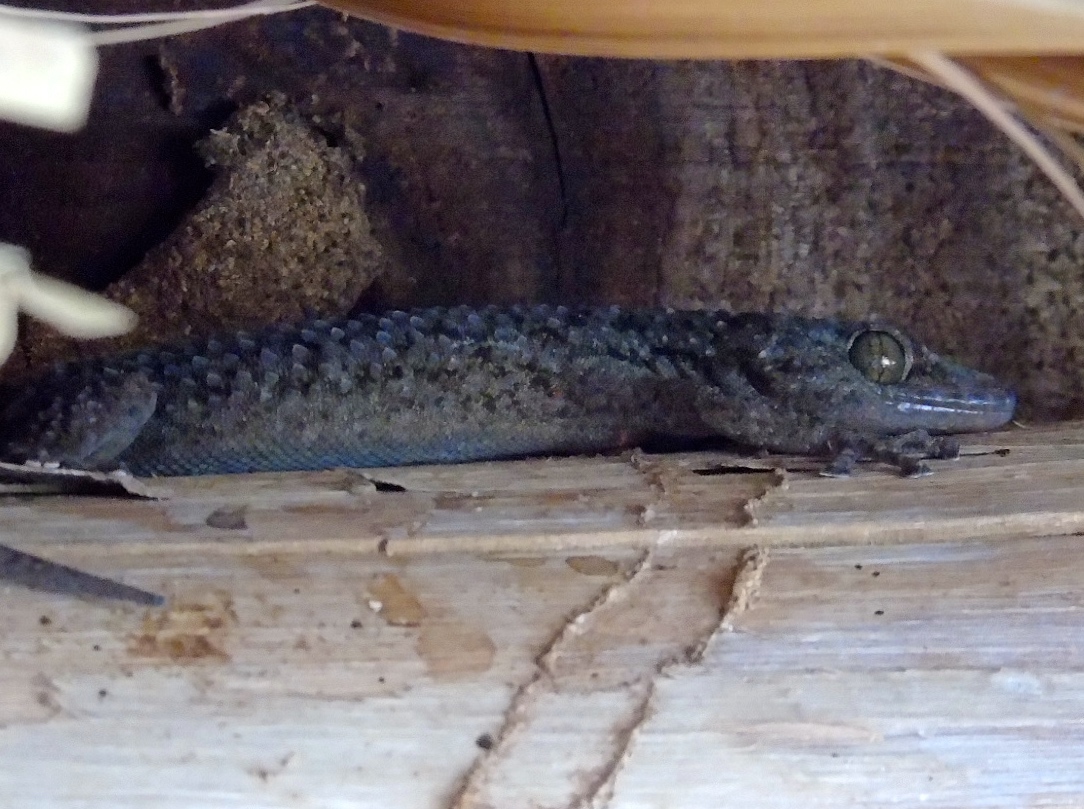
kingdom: Animalia
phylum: Chordata
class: Squamata
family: Gekkonidae
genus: Hemidactylus
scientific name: Hemidactylus turcicus
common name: Turkish gecko
